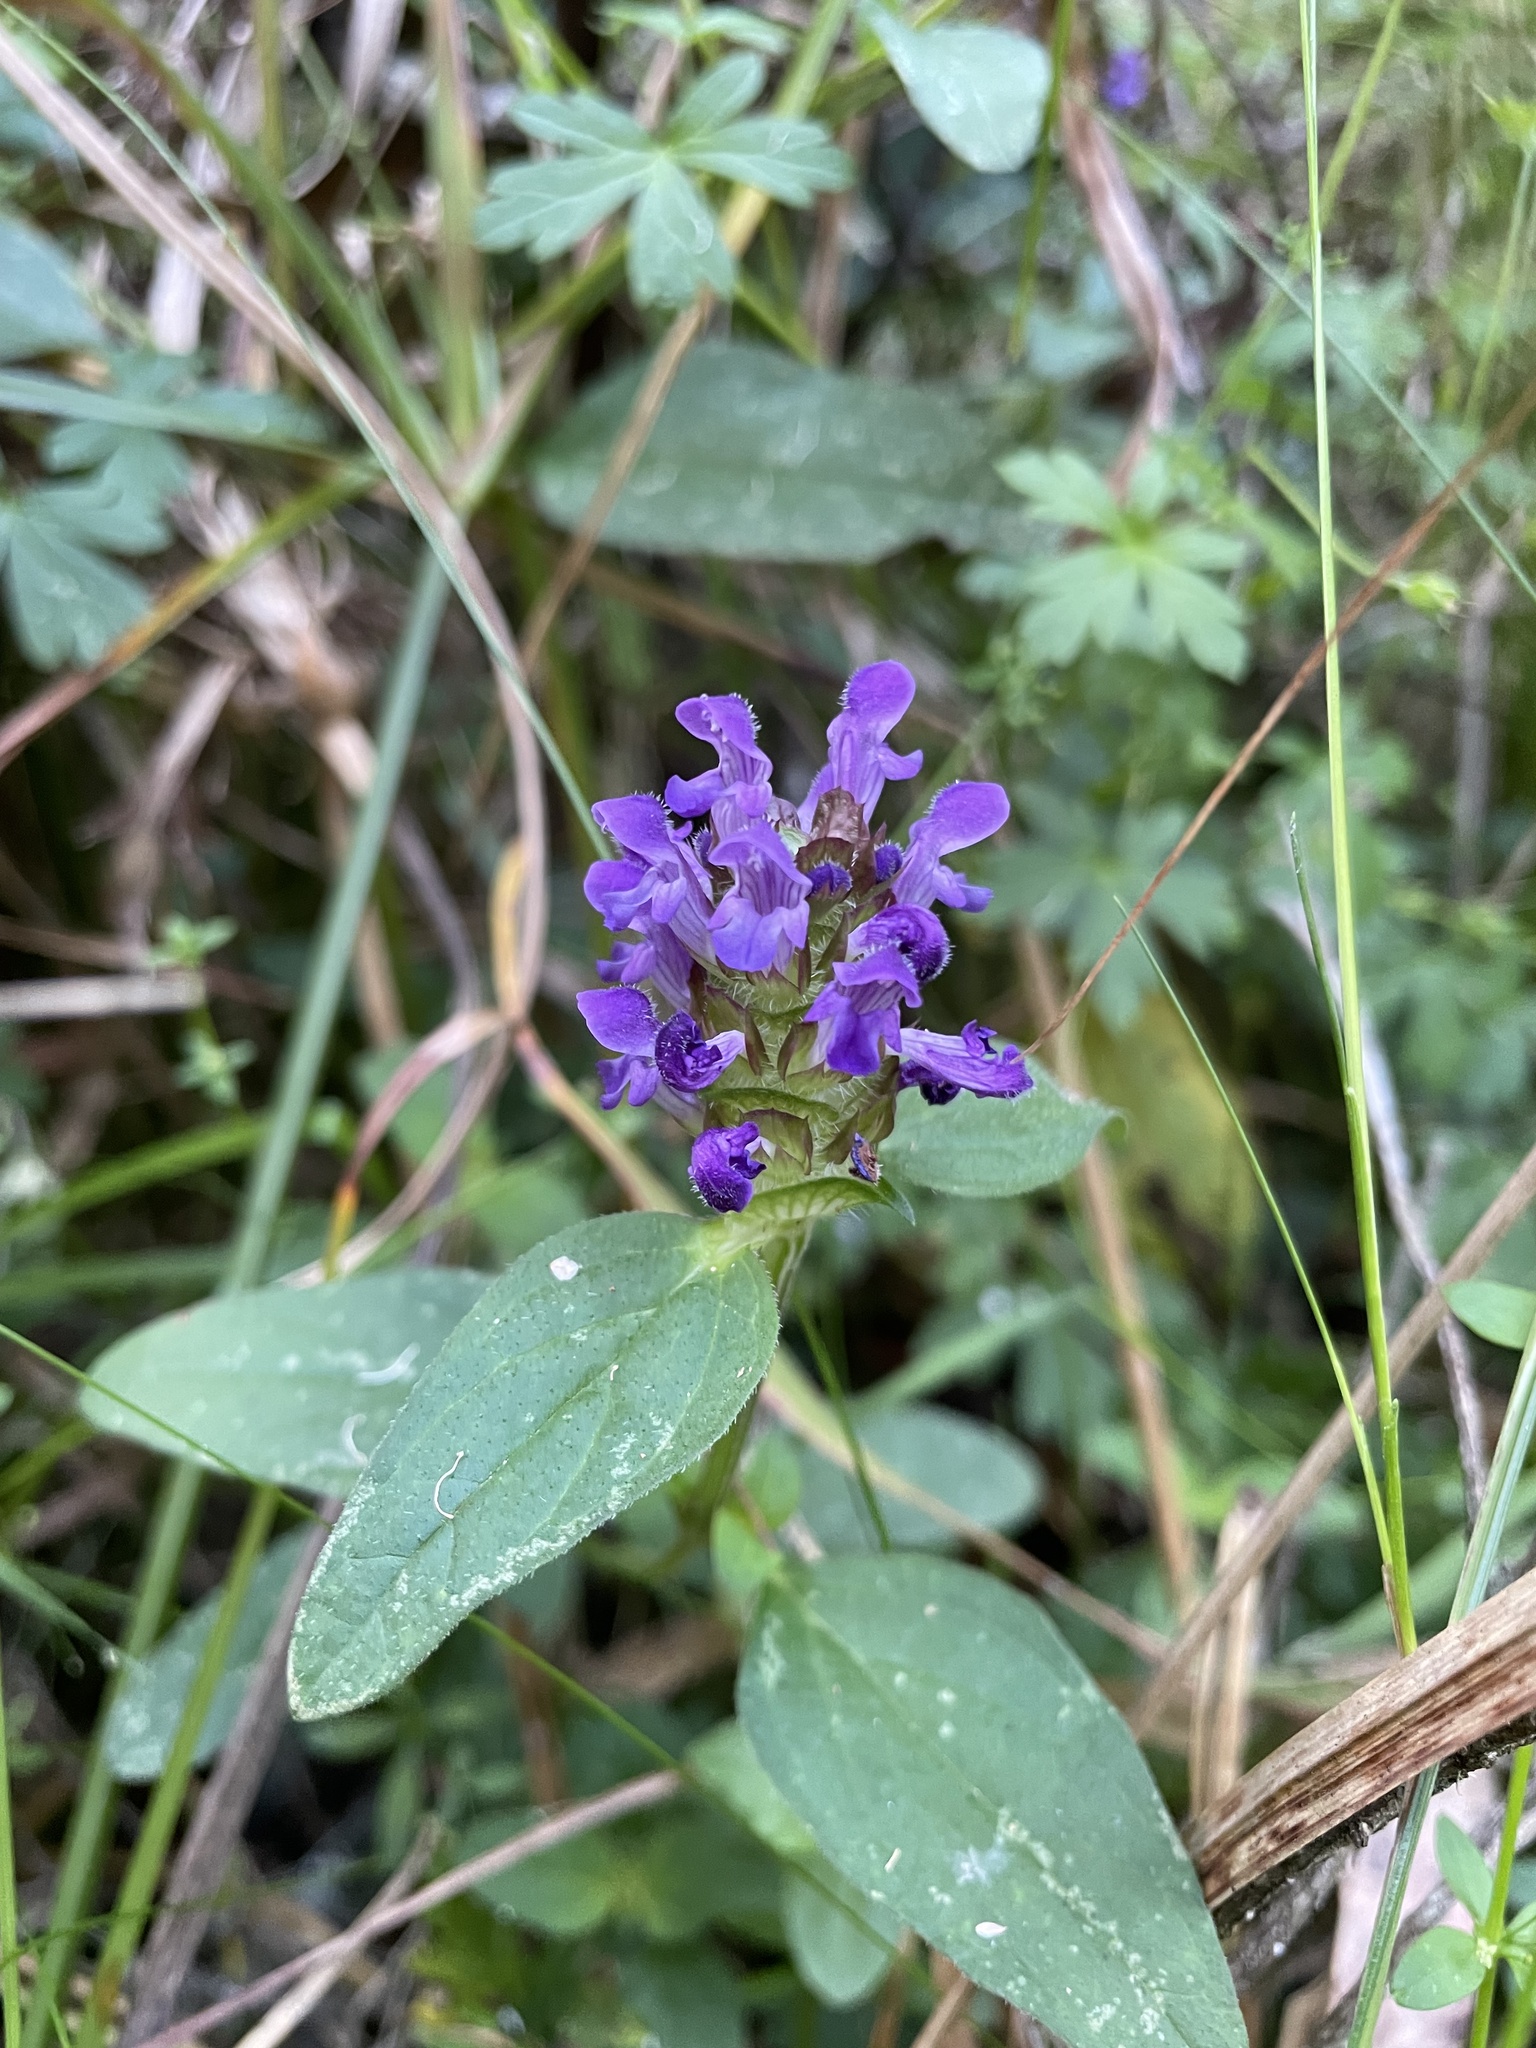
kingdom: Plantae
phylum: Tracheophyta
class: Magnoliopsida
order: Lamiales
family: Lamiaceae
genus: Prunella
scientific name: Prunella vulgaris
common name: Heal-all
